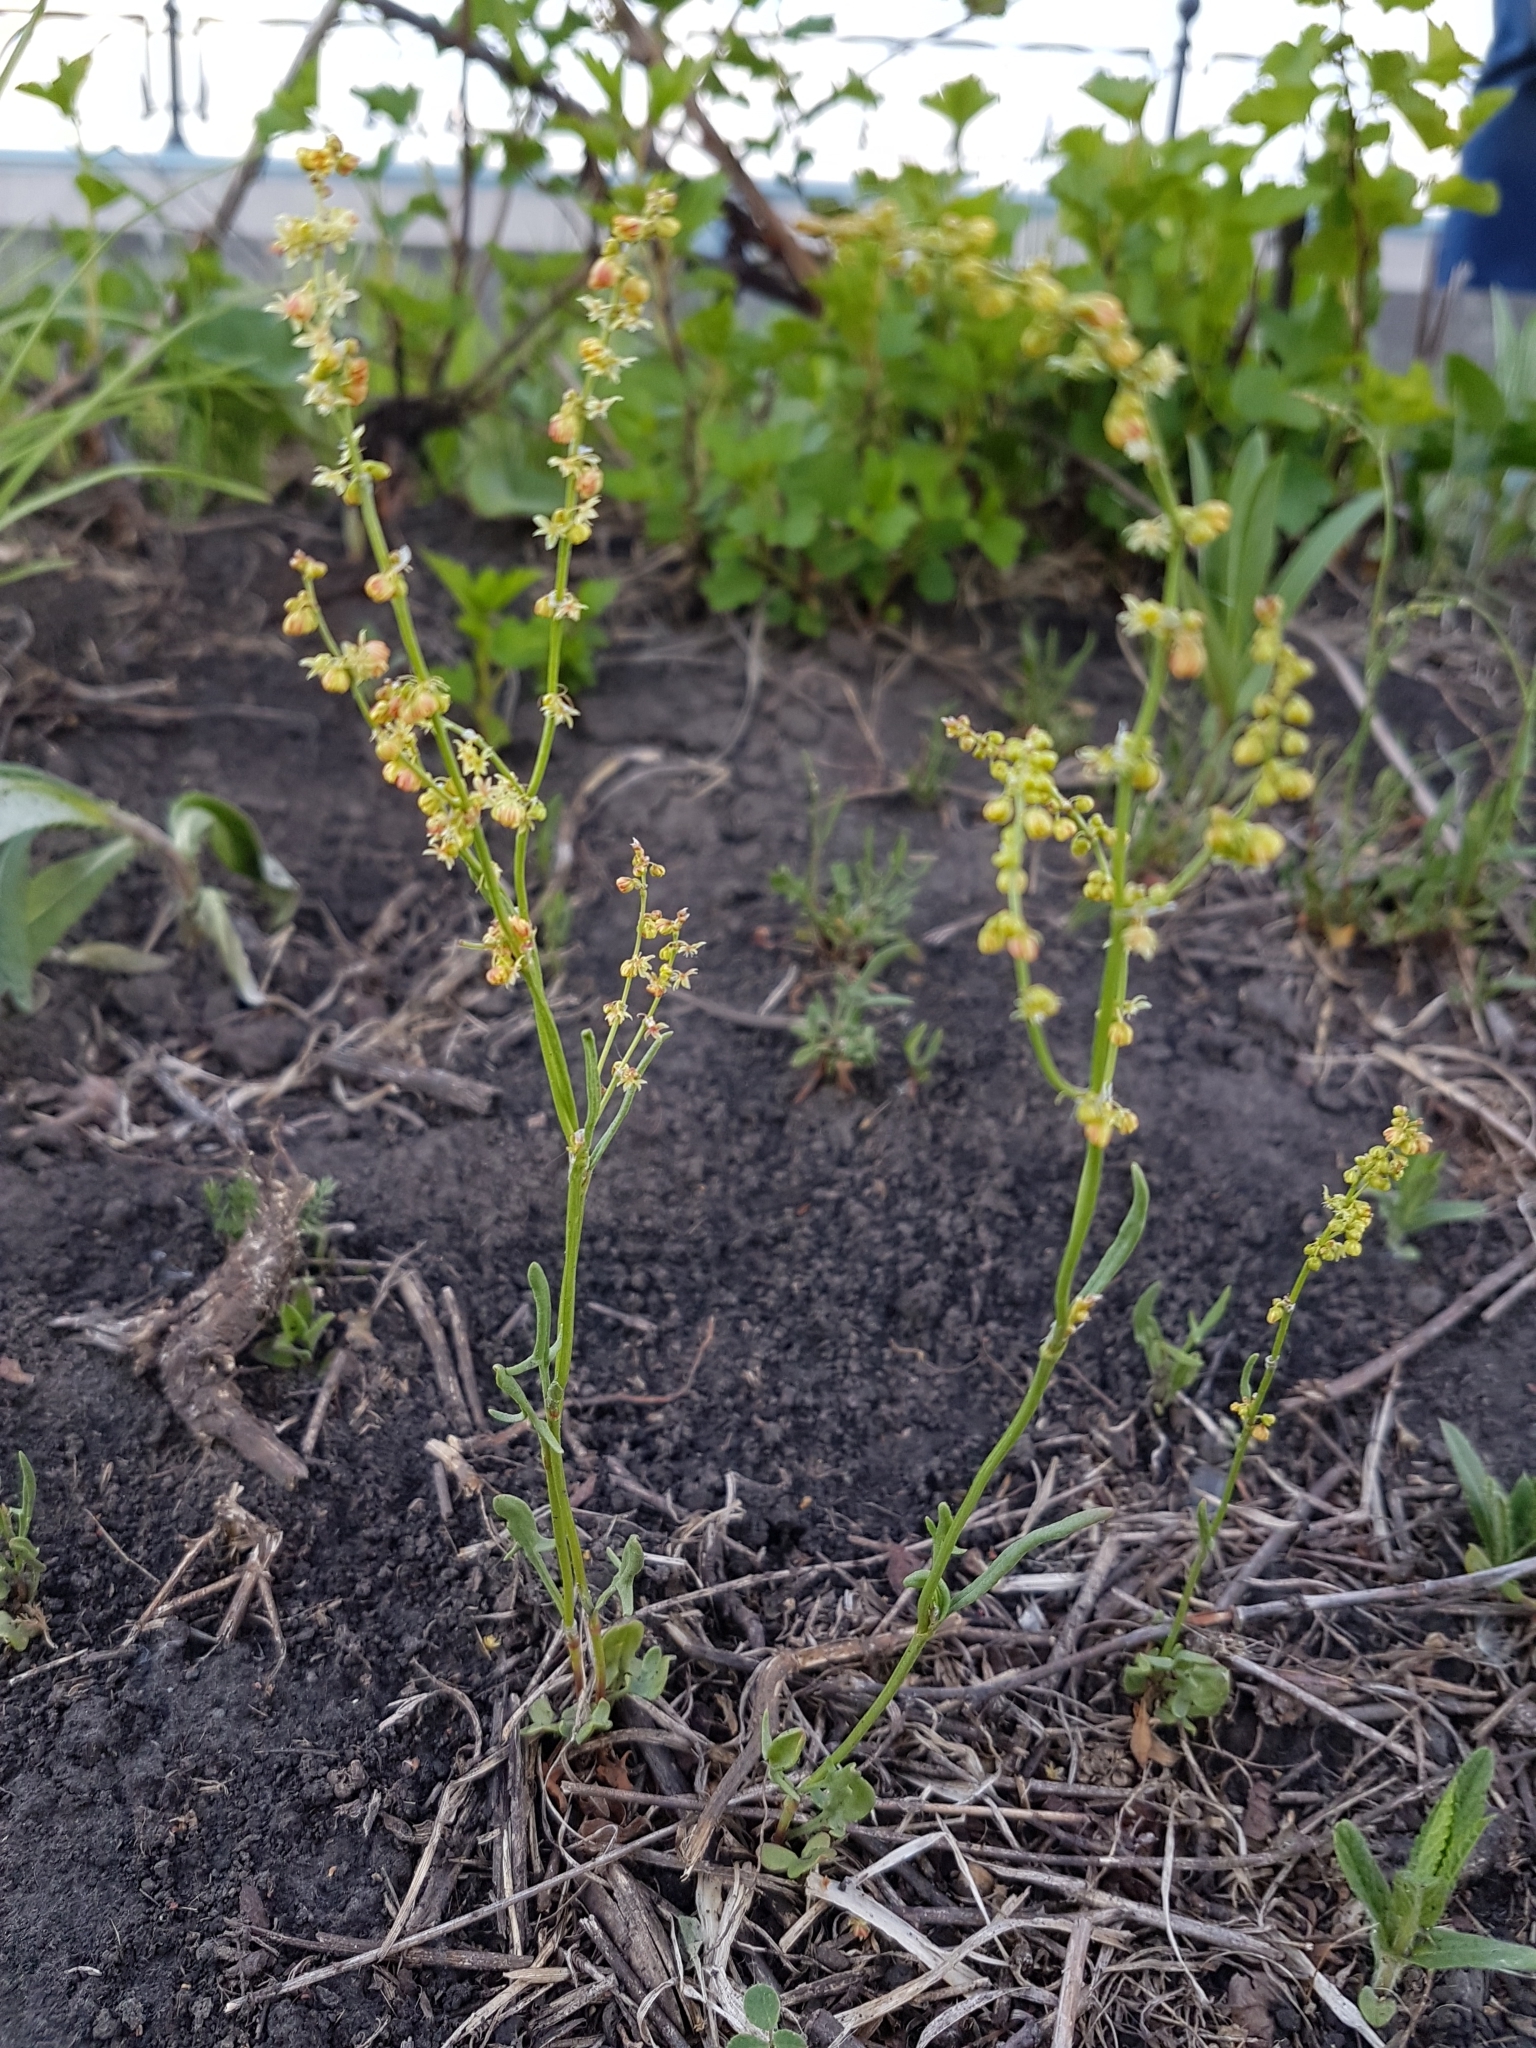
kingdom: Plantae
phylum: Tracheophyta
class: Magnoliopsida
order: Caryophyllales
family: Polygonaceae
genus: Rumex
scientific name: Rumex acetosella
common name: Common sheep sorrel
